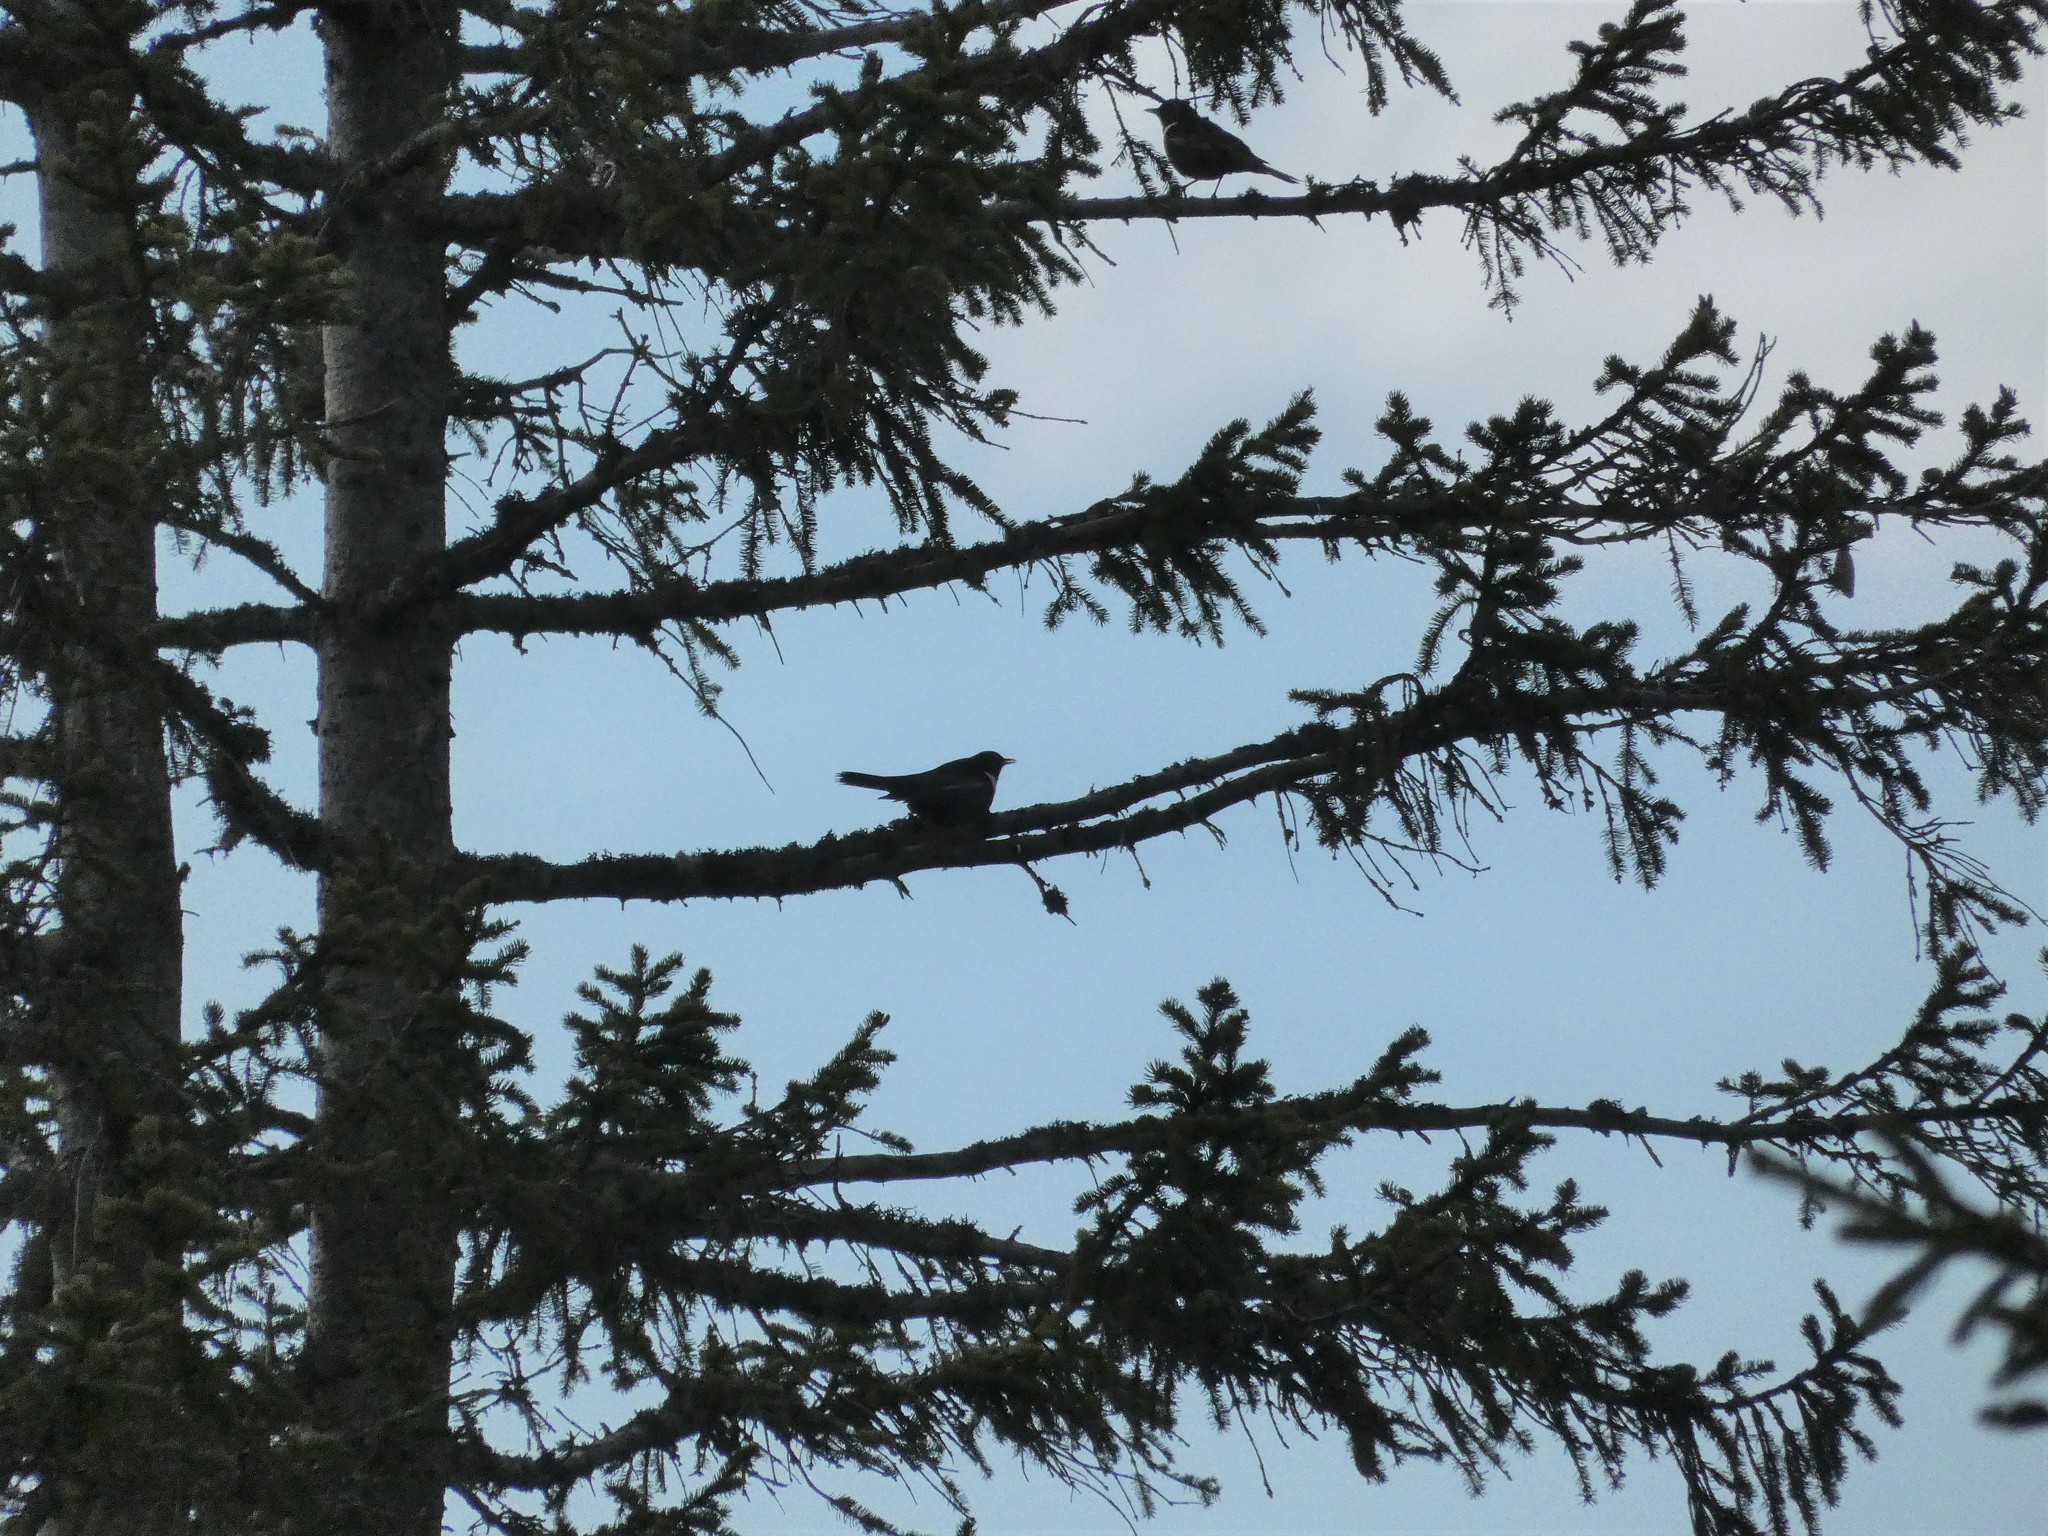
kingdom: Animalia
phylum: Chordata
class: Aves
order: Passeriformes
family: Turdidae
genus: Turdus
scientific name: Turdus torquatus
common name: Ring ouzel
